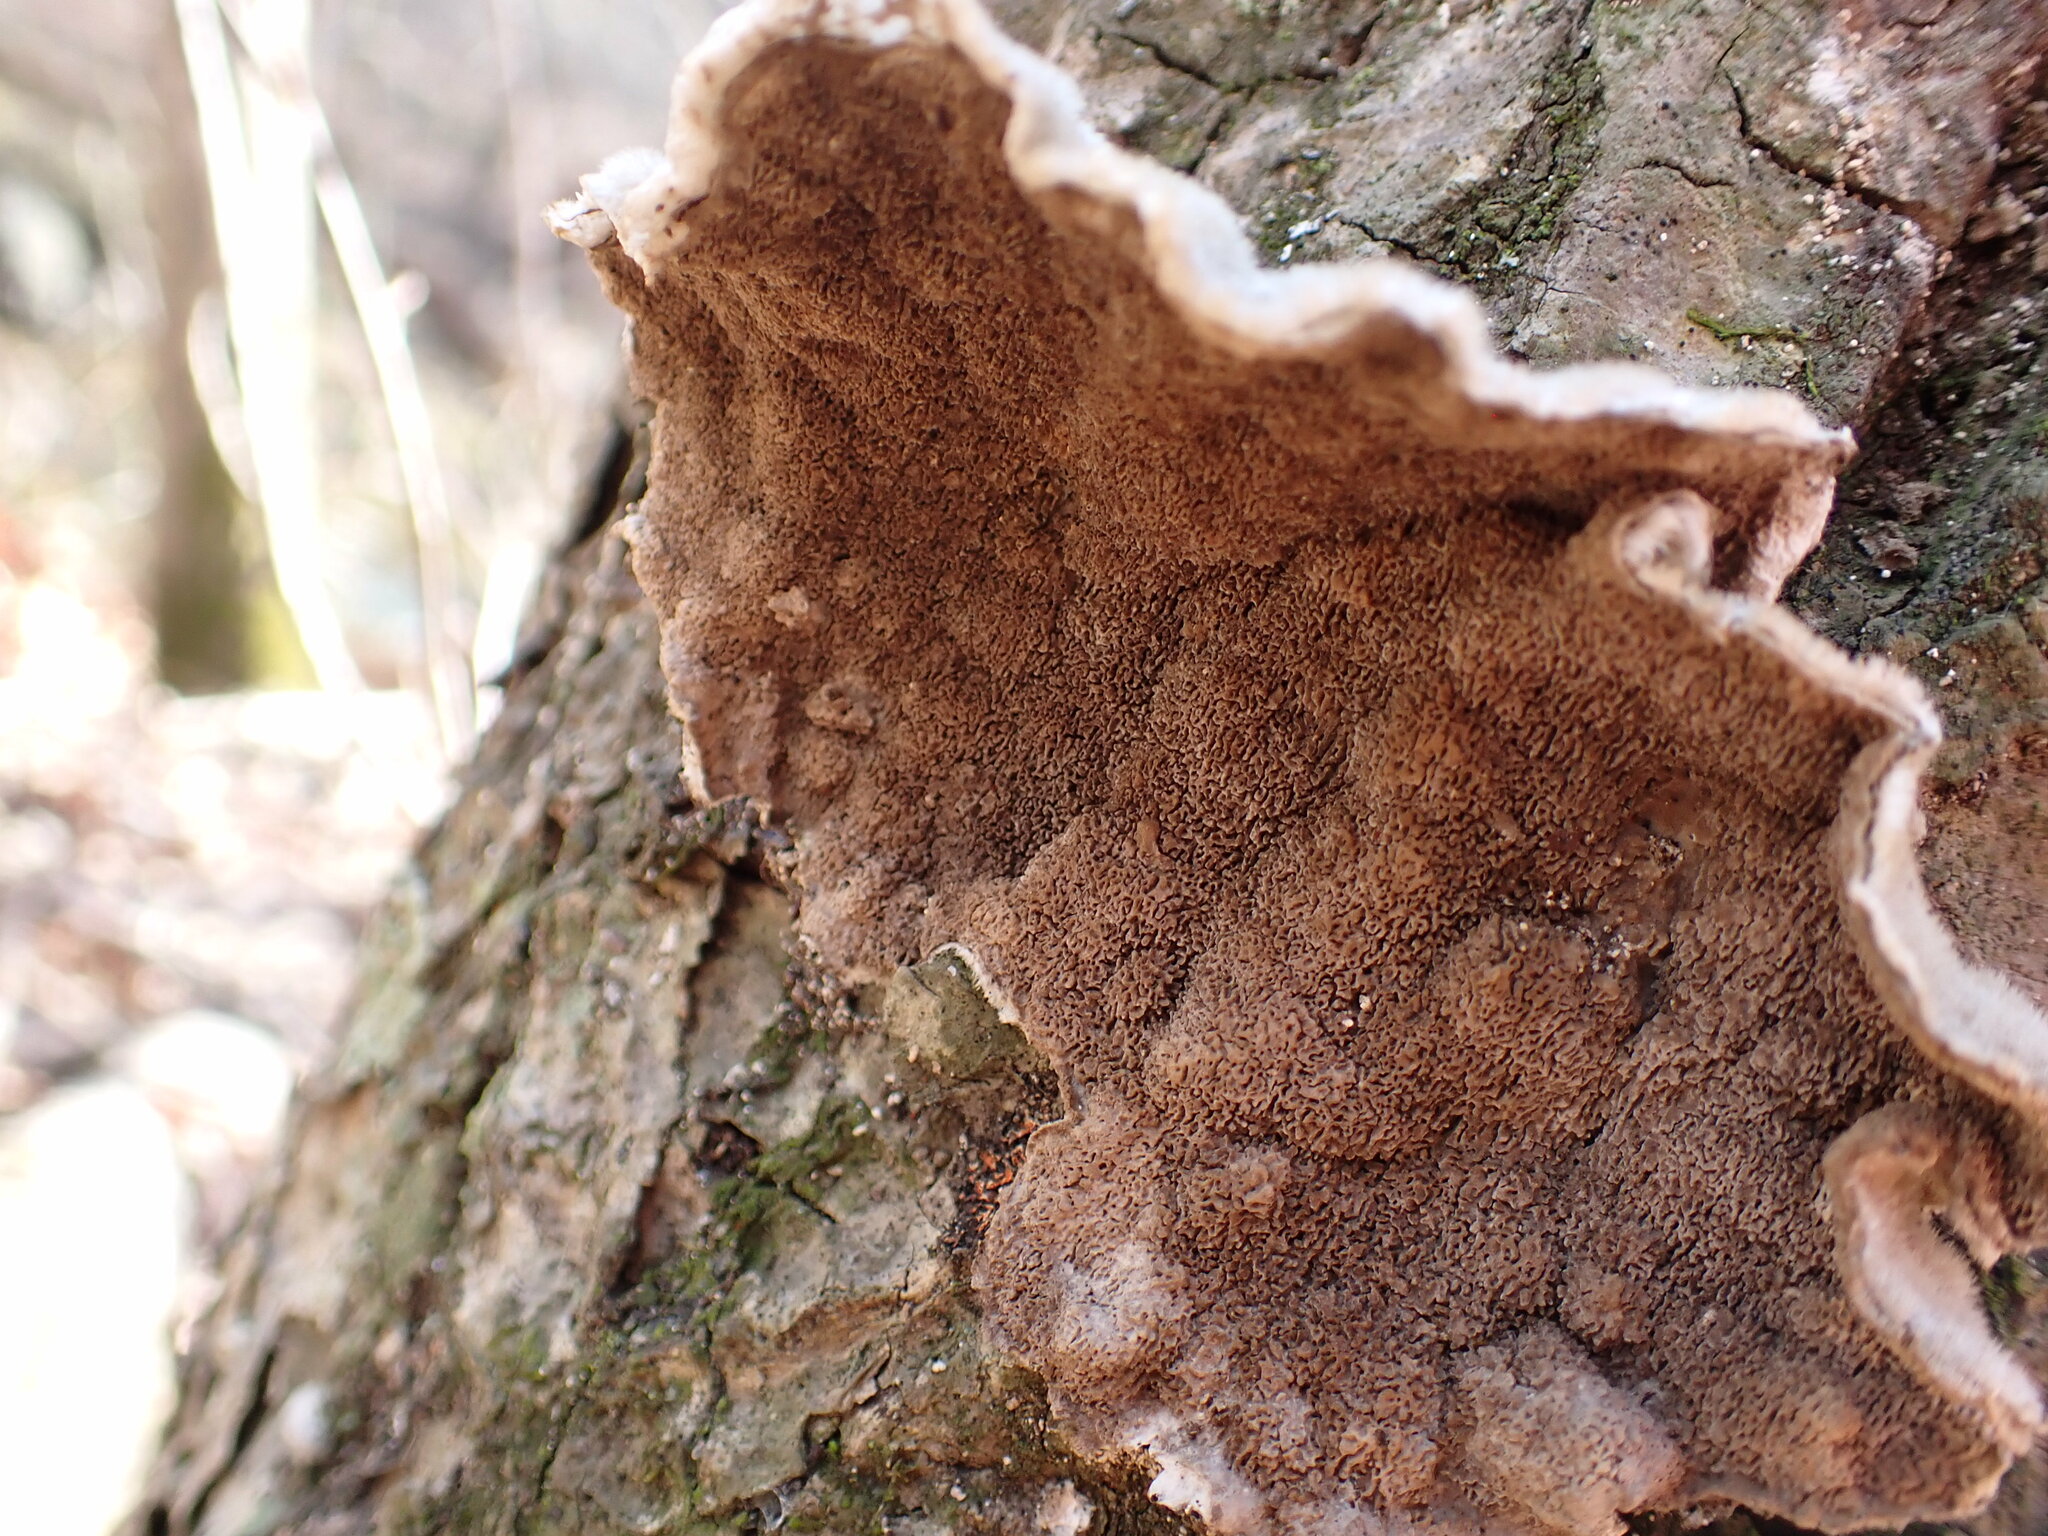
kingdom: Fungi
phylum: Basidiomycota
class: Agaricomycetes
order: Polyporales
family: Cerrenaceae
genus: Cerrena
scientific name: Cerrena unicolor
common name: Mossy maze polypore
